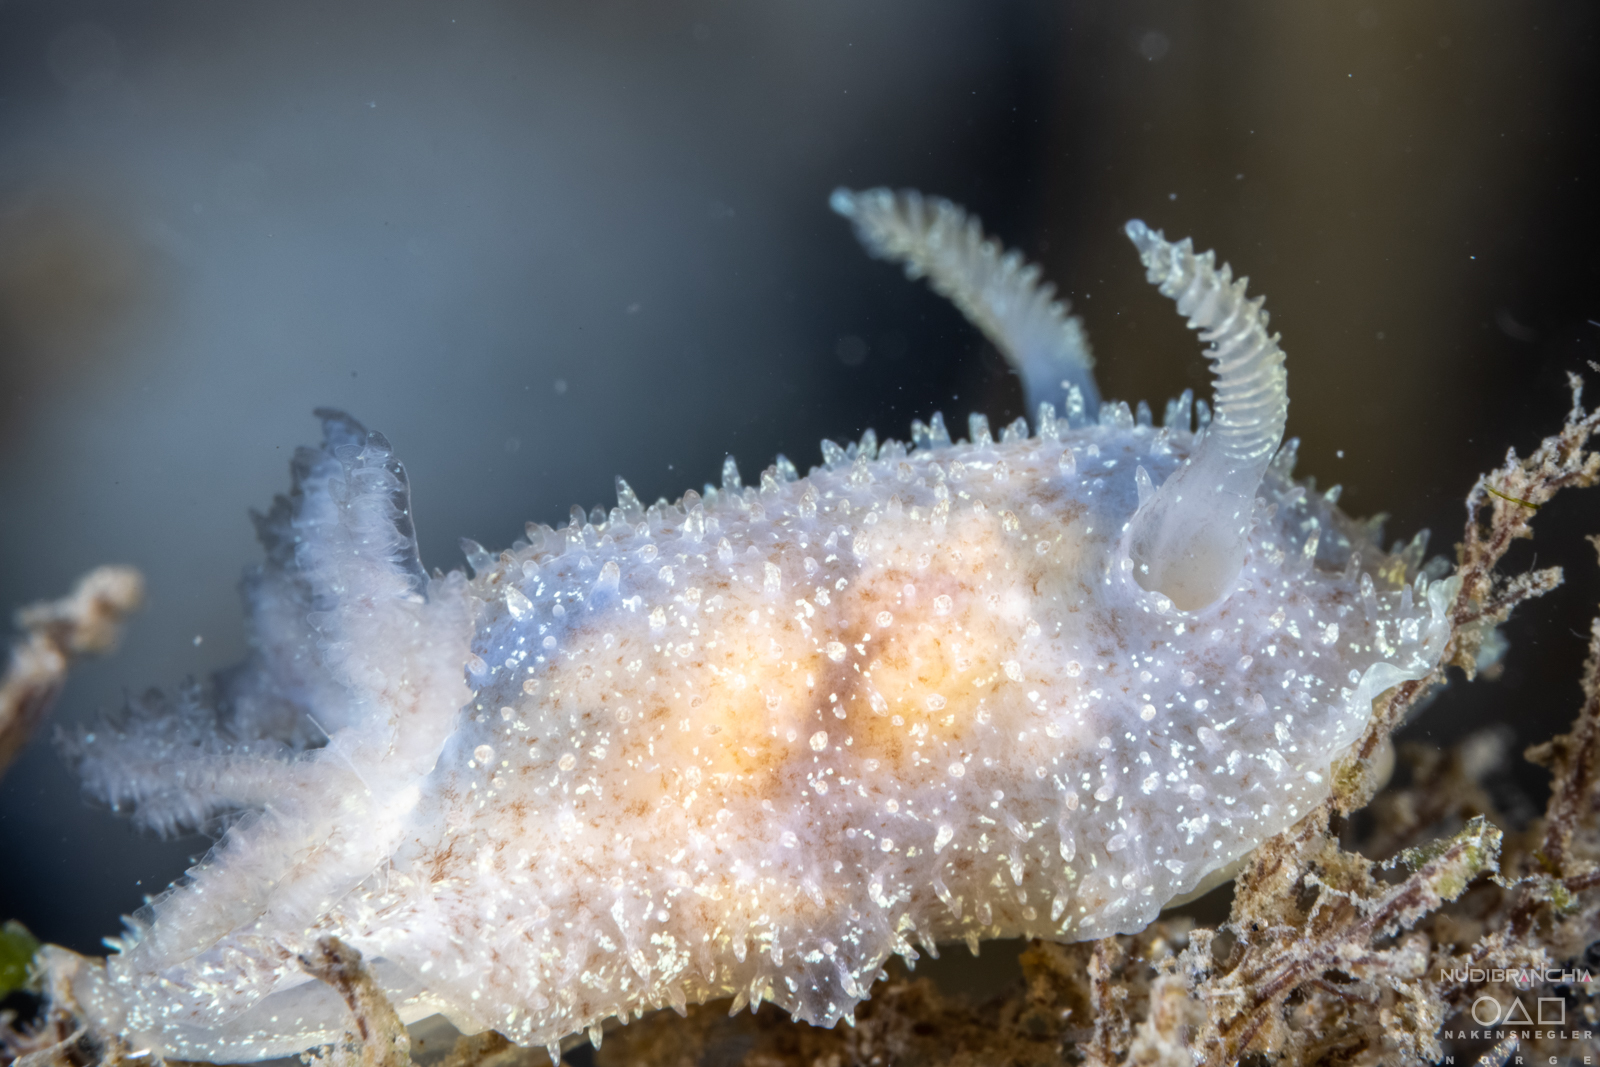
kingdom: Animalia
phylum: Mollusca
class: Gastropoda
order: Nudibranchia
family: Onchidorididae
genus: Acanthodoris
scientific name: Acanthodoris pilosa
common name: Hairy spiny doris
